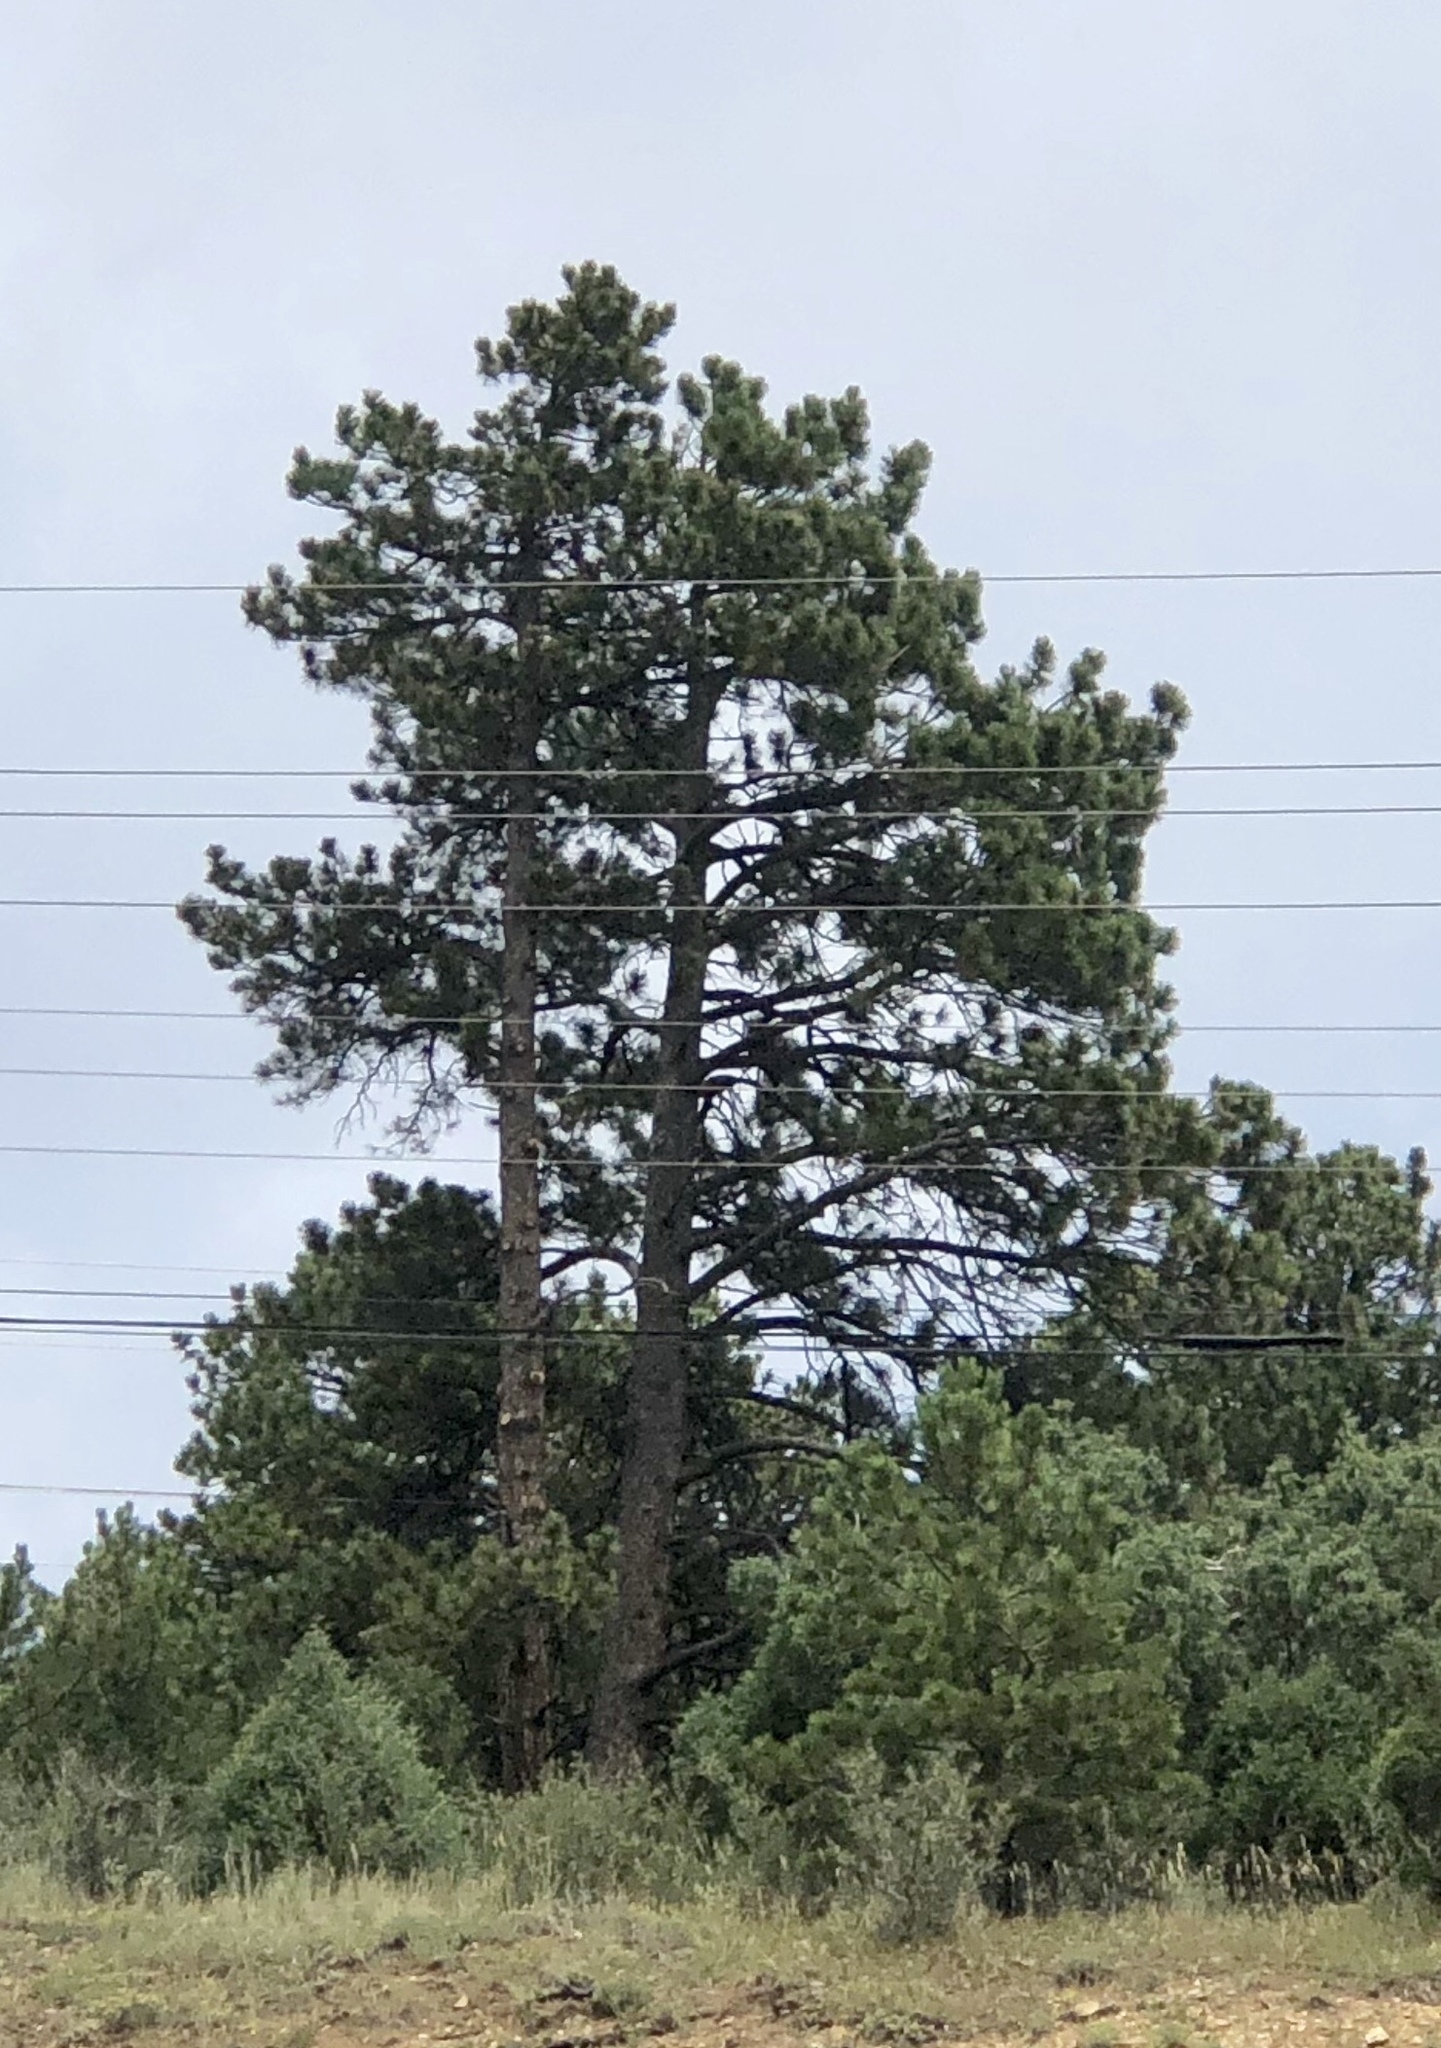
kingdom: Plantae
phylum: Tracheophyta
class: Pinopsida
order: Pinales
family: Pinaceae
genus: Pinus
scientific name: Pinus ponderosa
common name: Western yellow-pine
